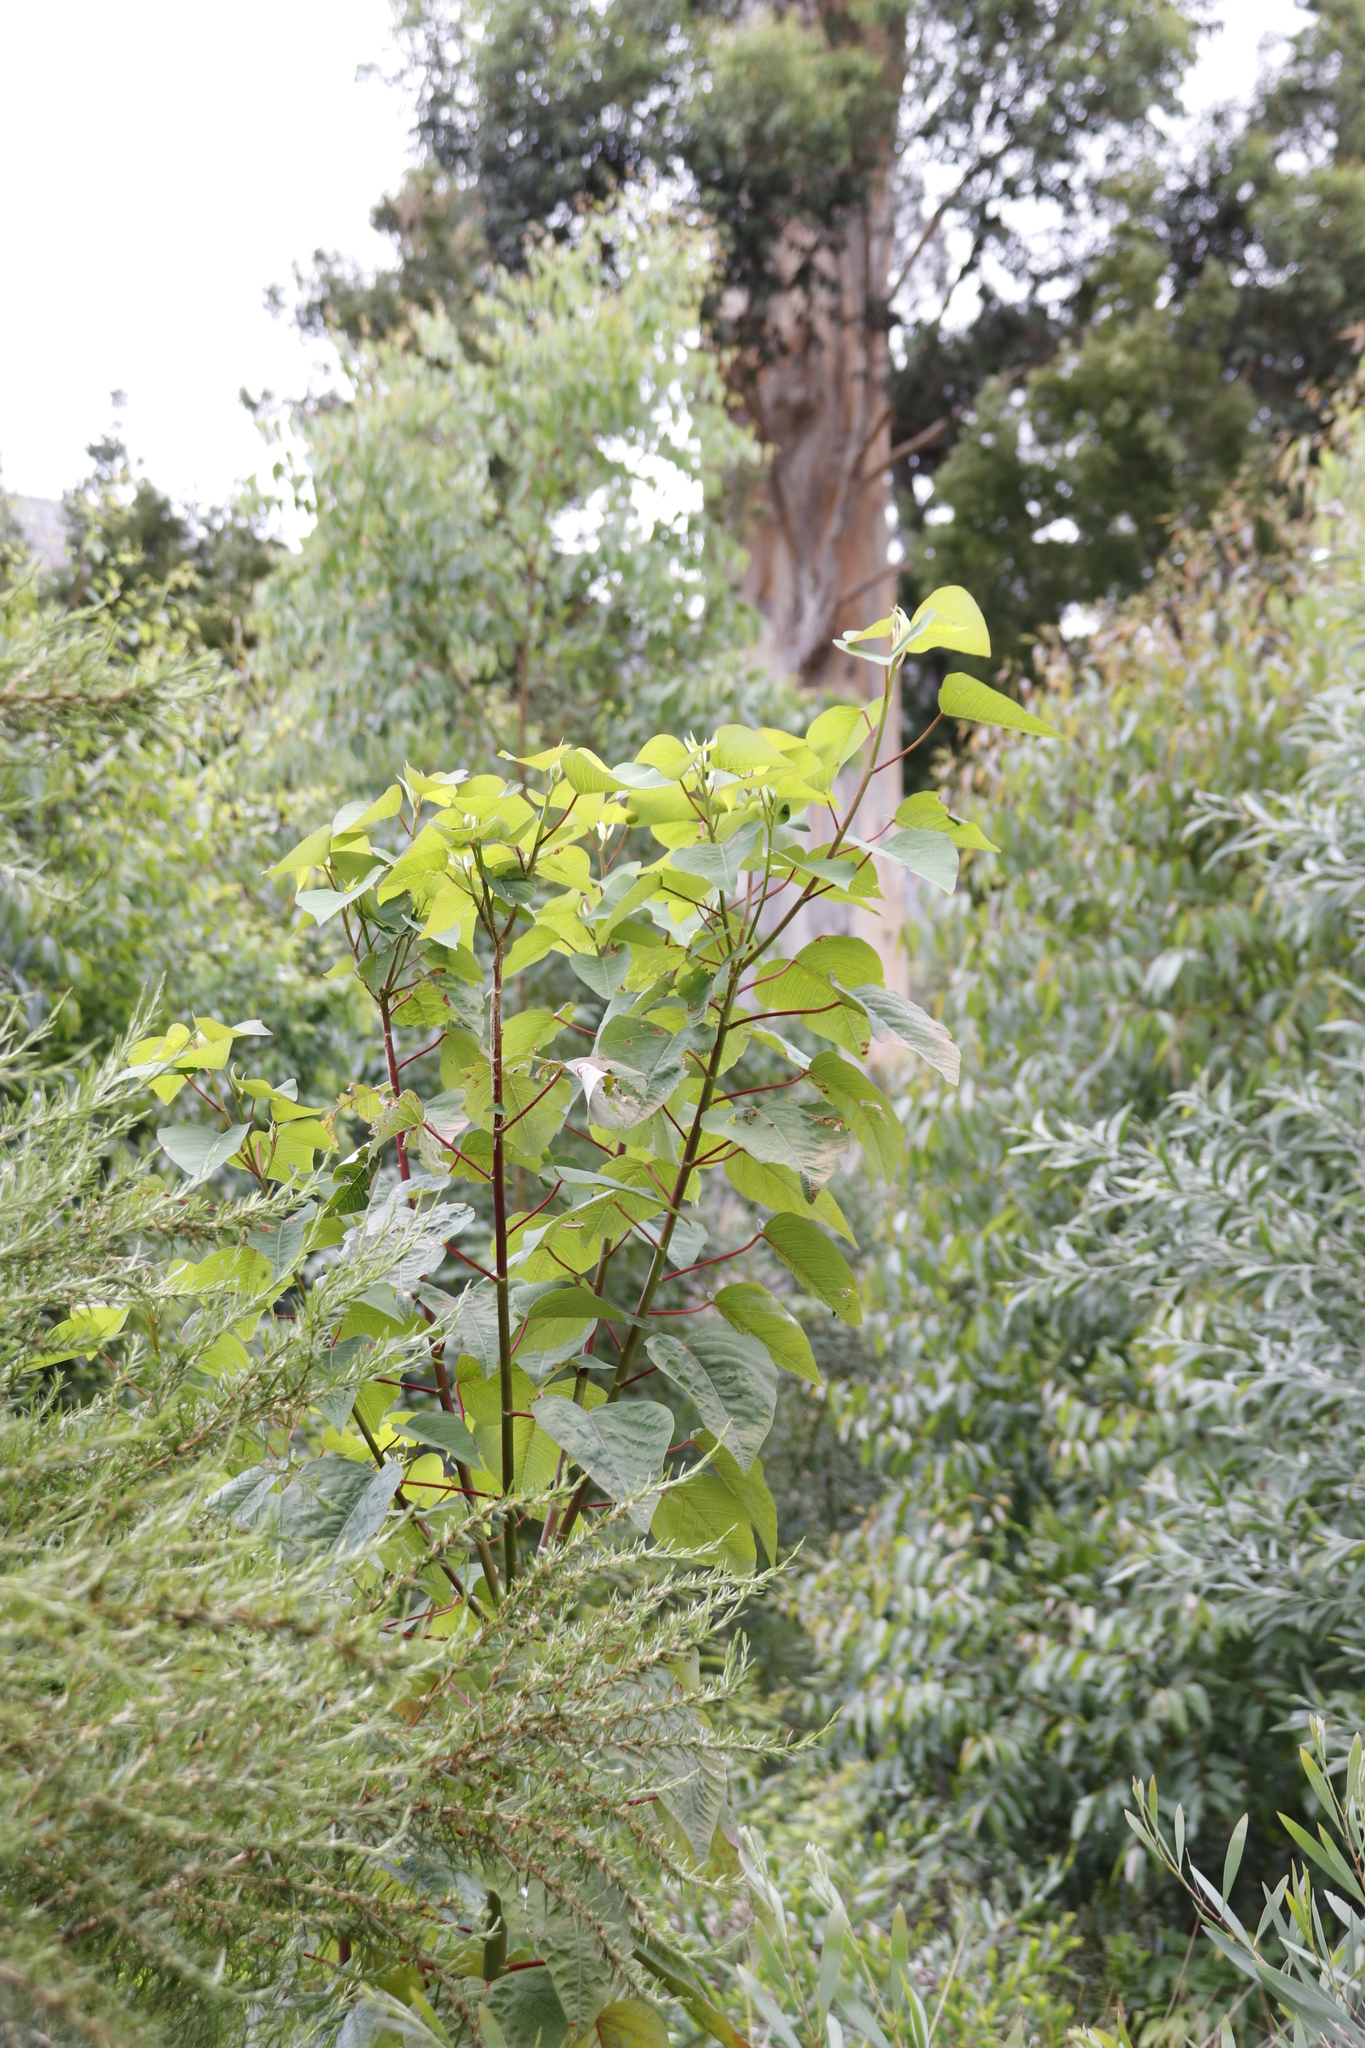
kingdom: Plantae
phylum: Tracheophyta
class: Magnoliopsida
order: Malpighiales
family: Euphorbiaceae
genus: Homalanthus
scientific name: Homalanthus populifolius
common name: Queensland poplar
